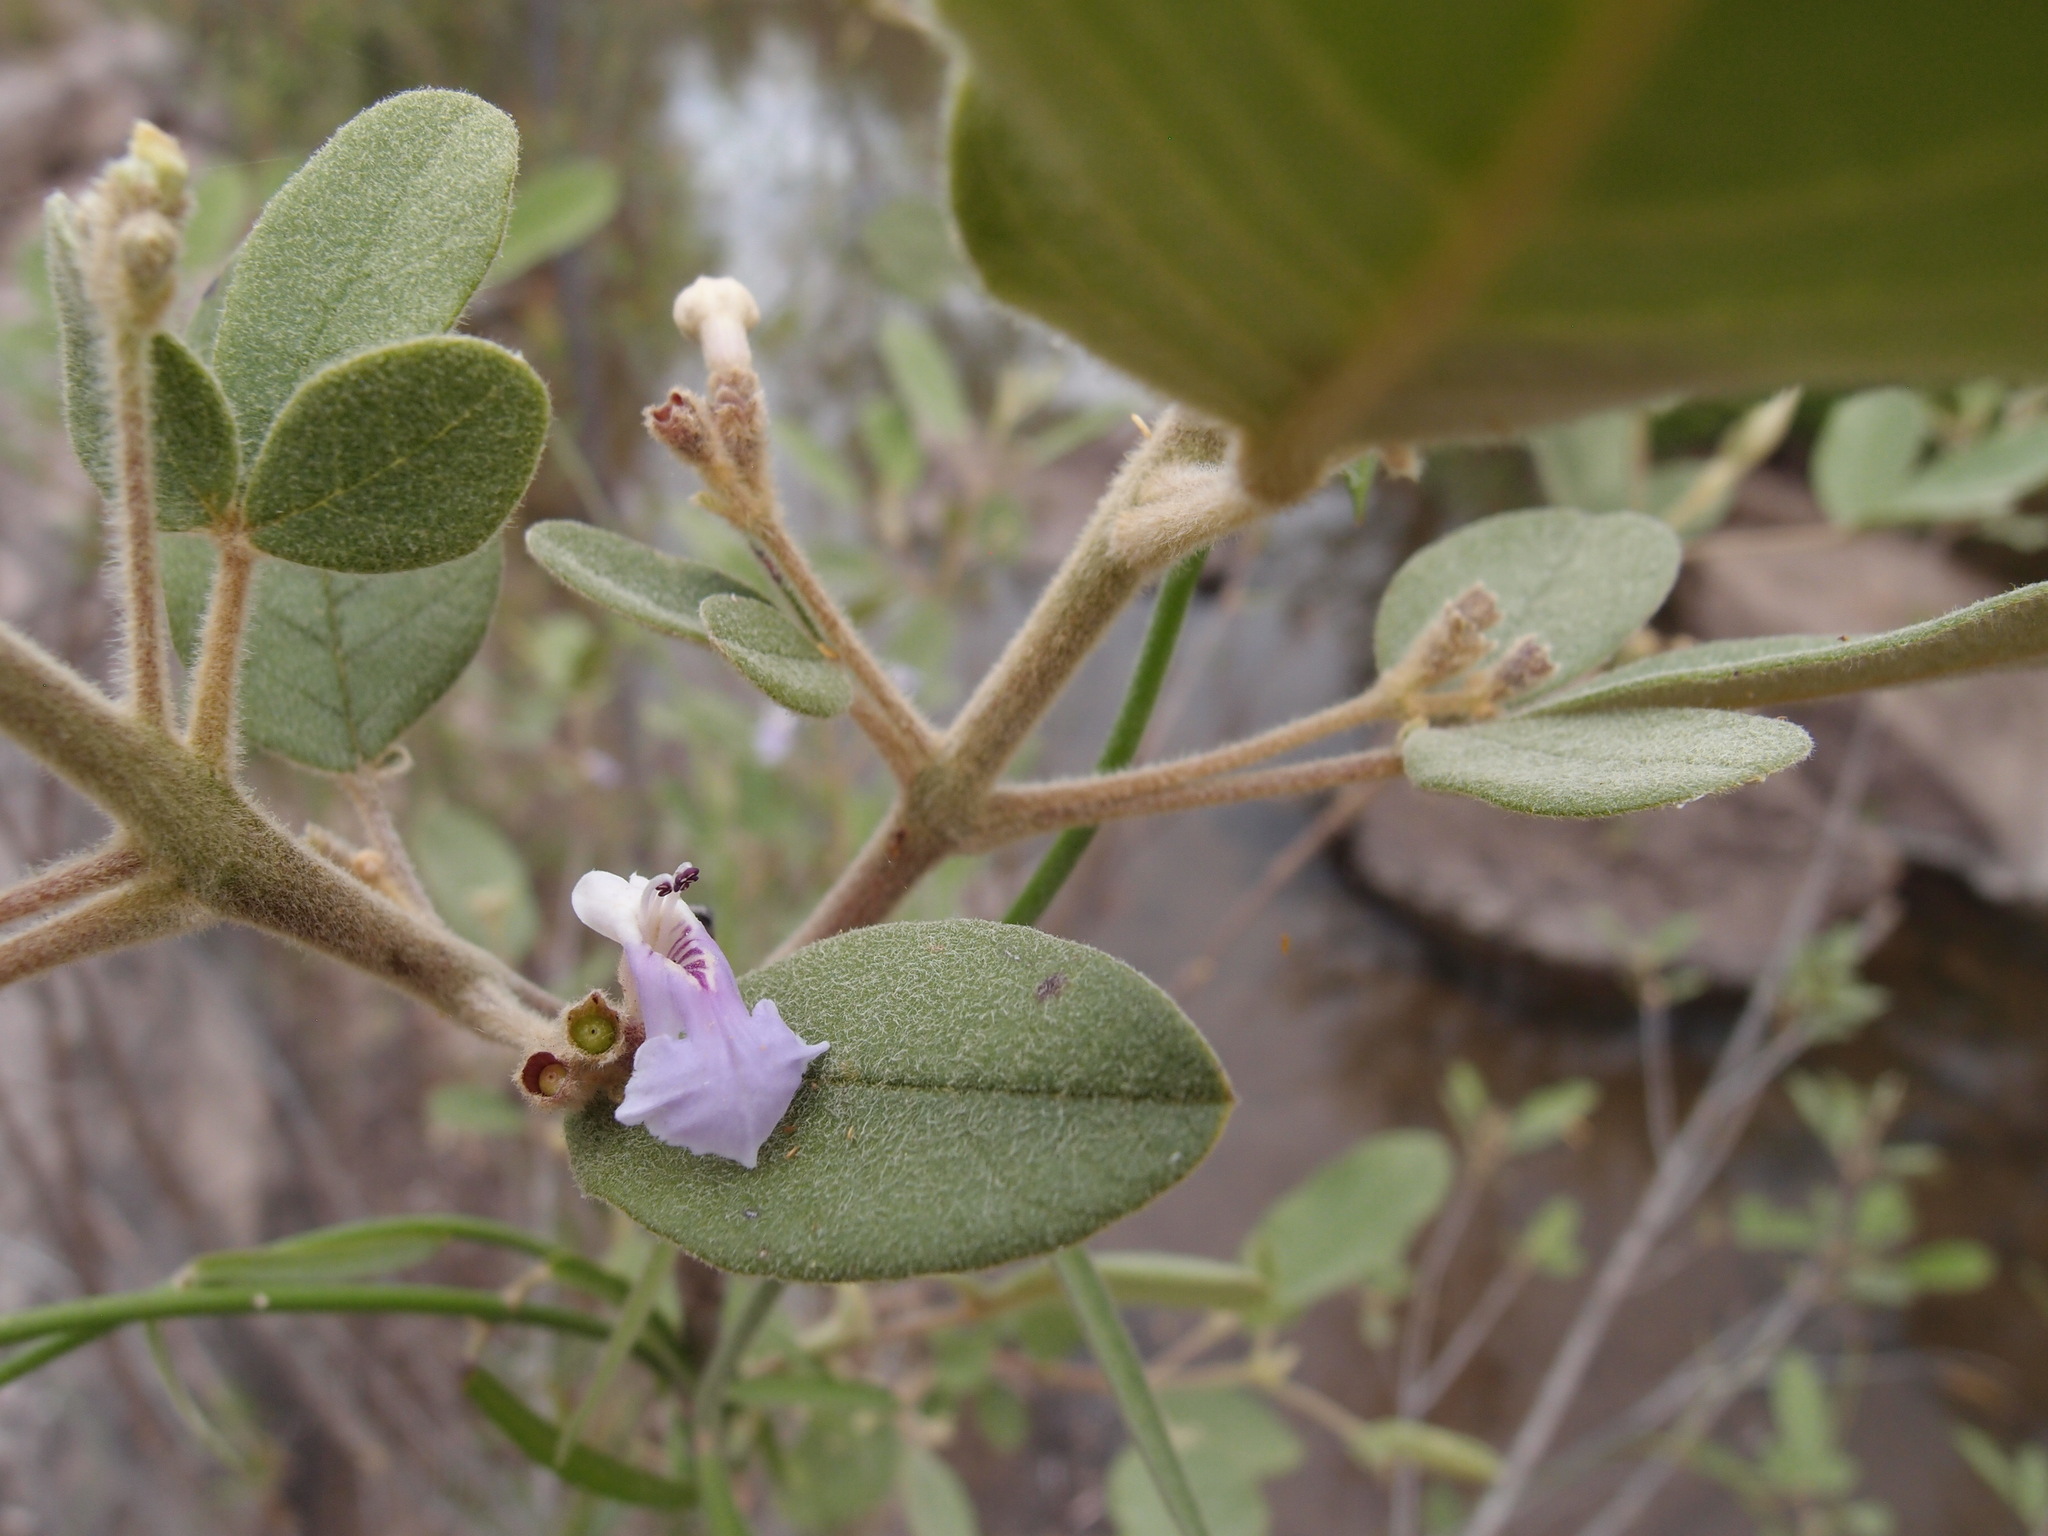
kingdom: Plantae
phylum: Tracheophyta
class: Magnoliopsida
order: Lamiales
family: Lamiaceae
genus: Vitex
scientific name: Vitex mollis
